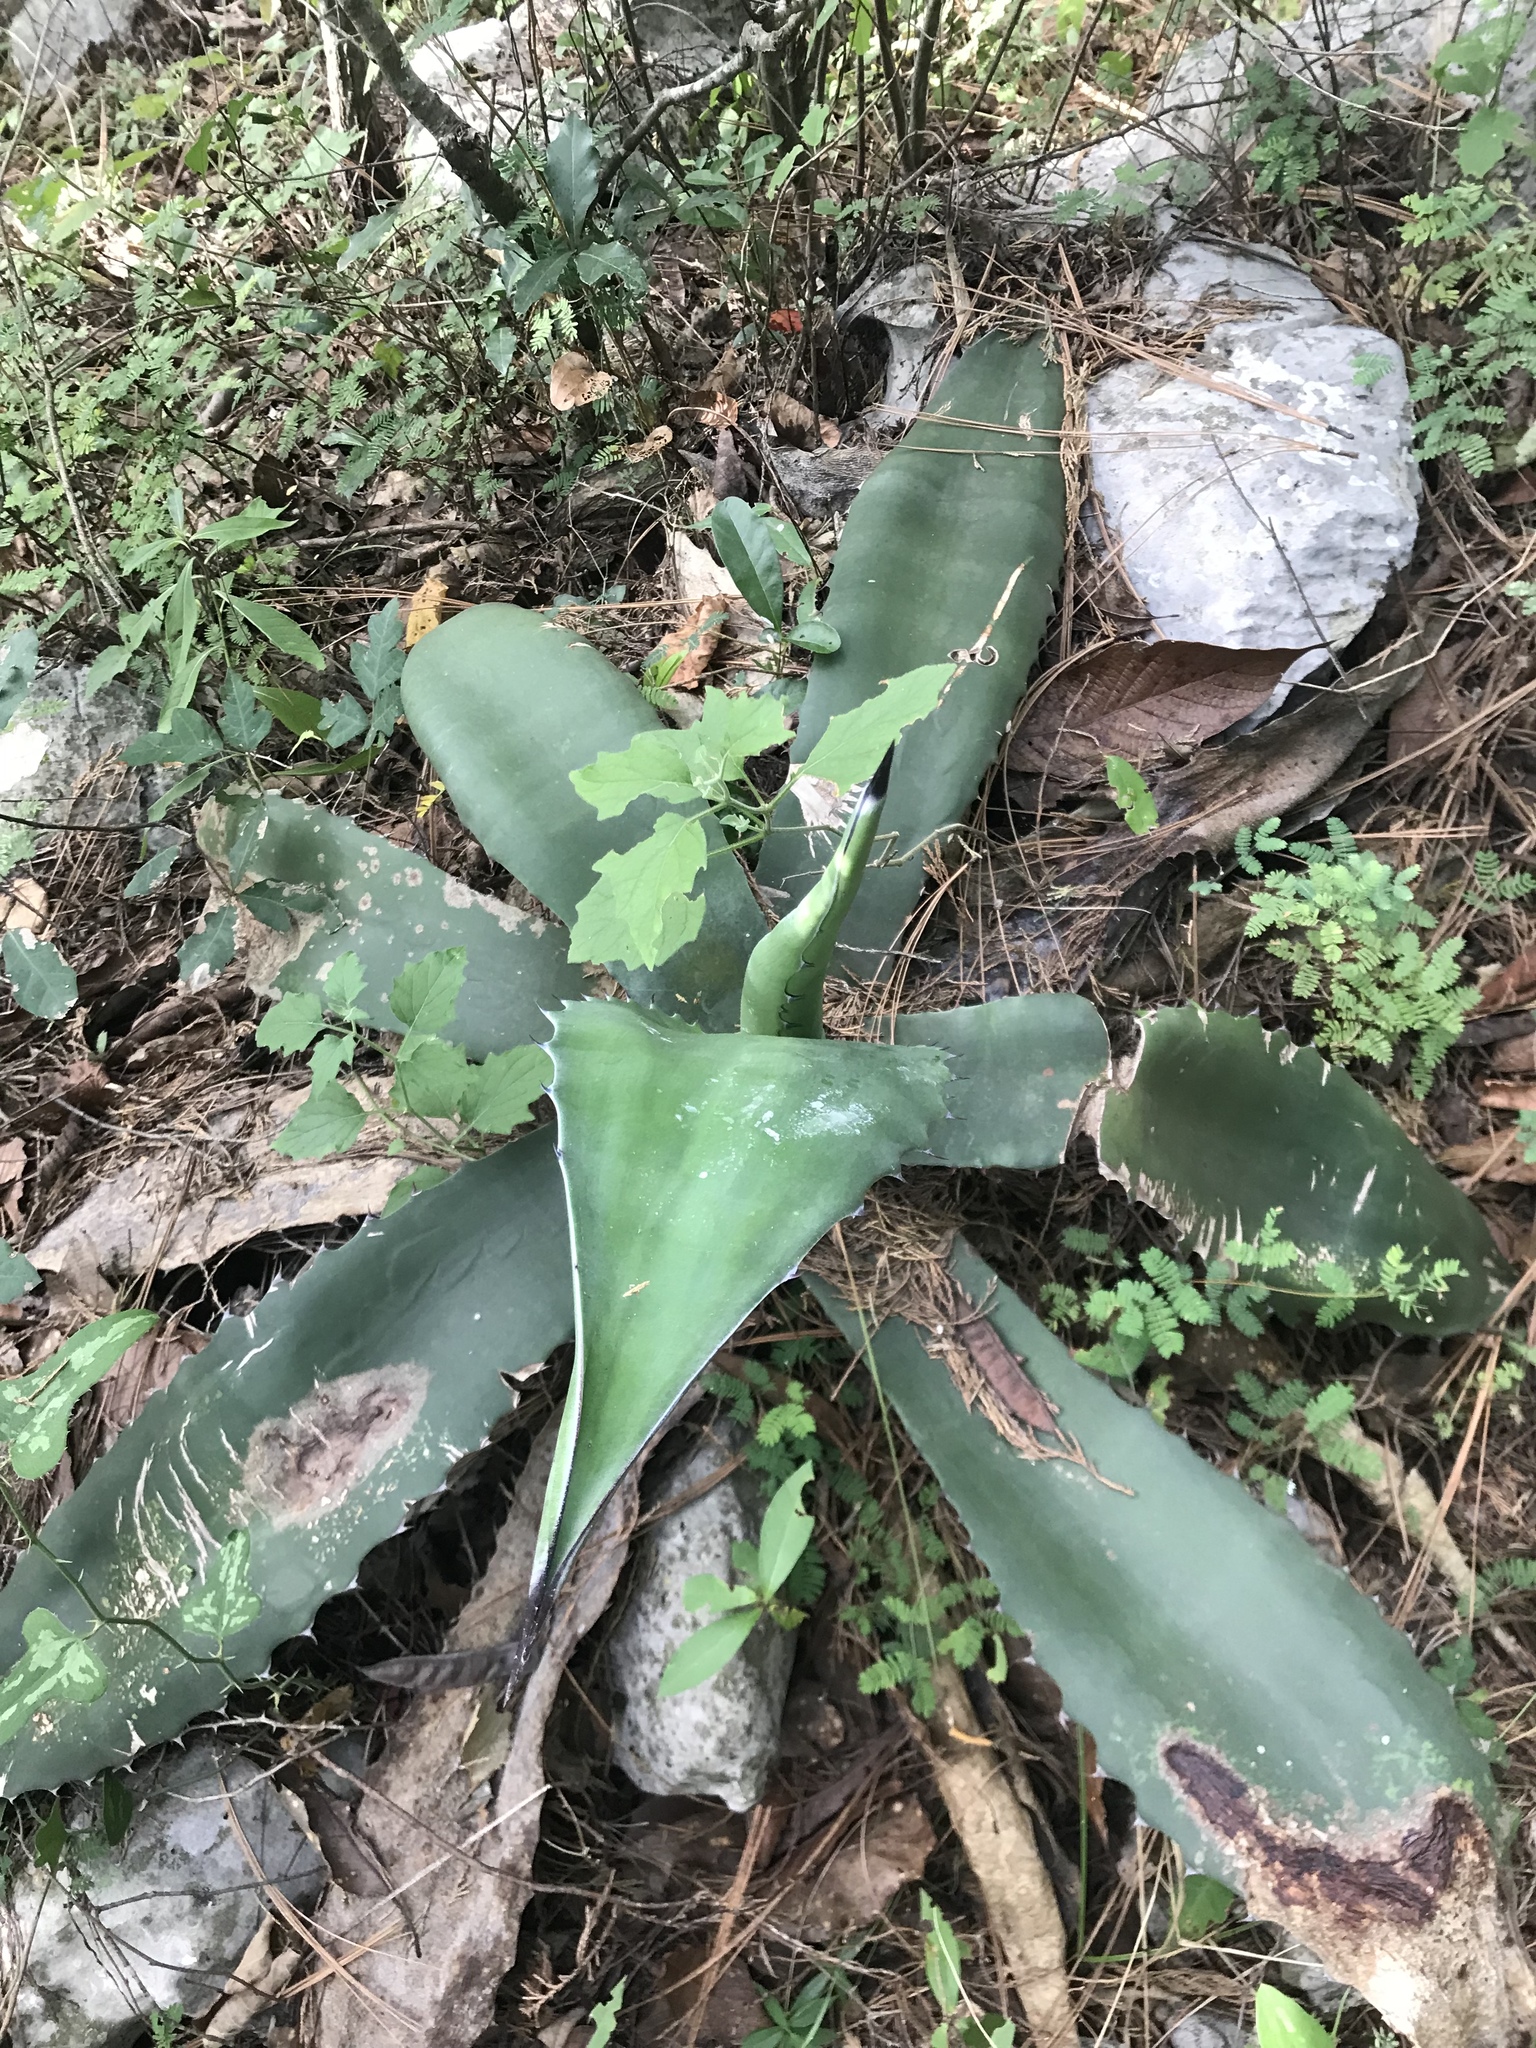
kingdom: Plantae
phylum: Tracheophyta
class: Liliopsida
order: Asparagales
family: Asparagaceae
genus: Agave
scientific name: Agave americana
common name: Centuryplant
